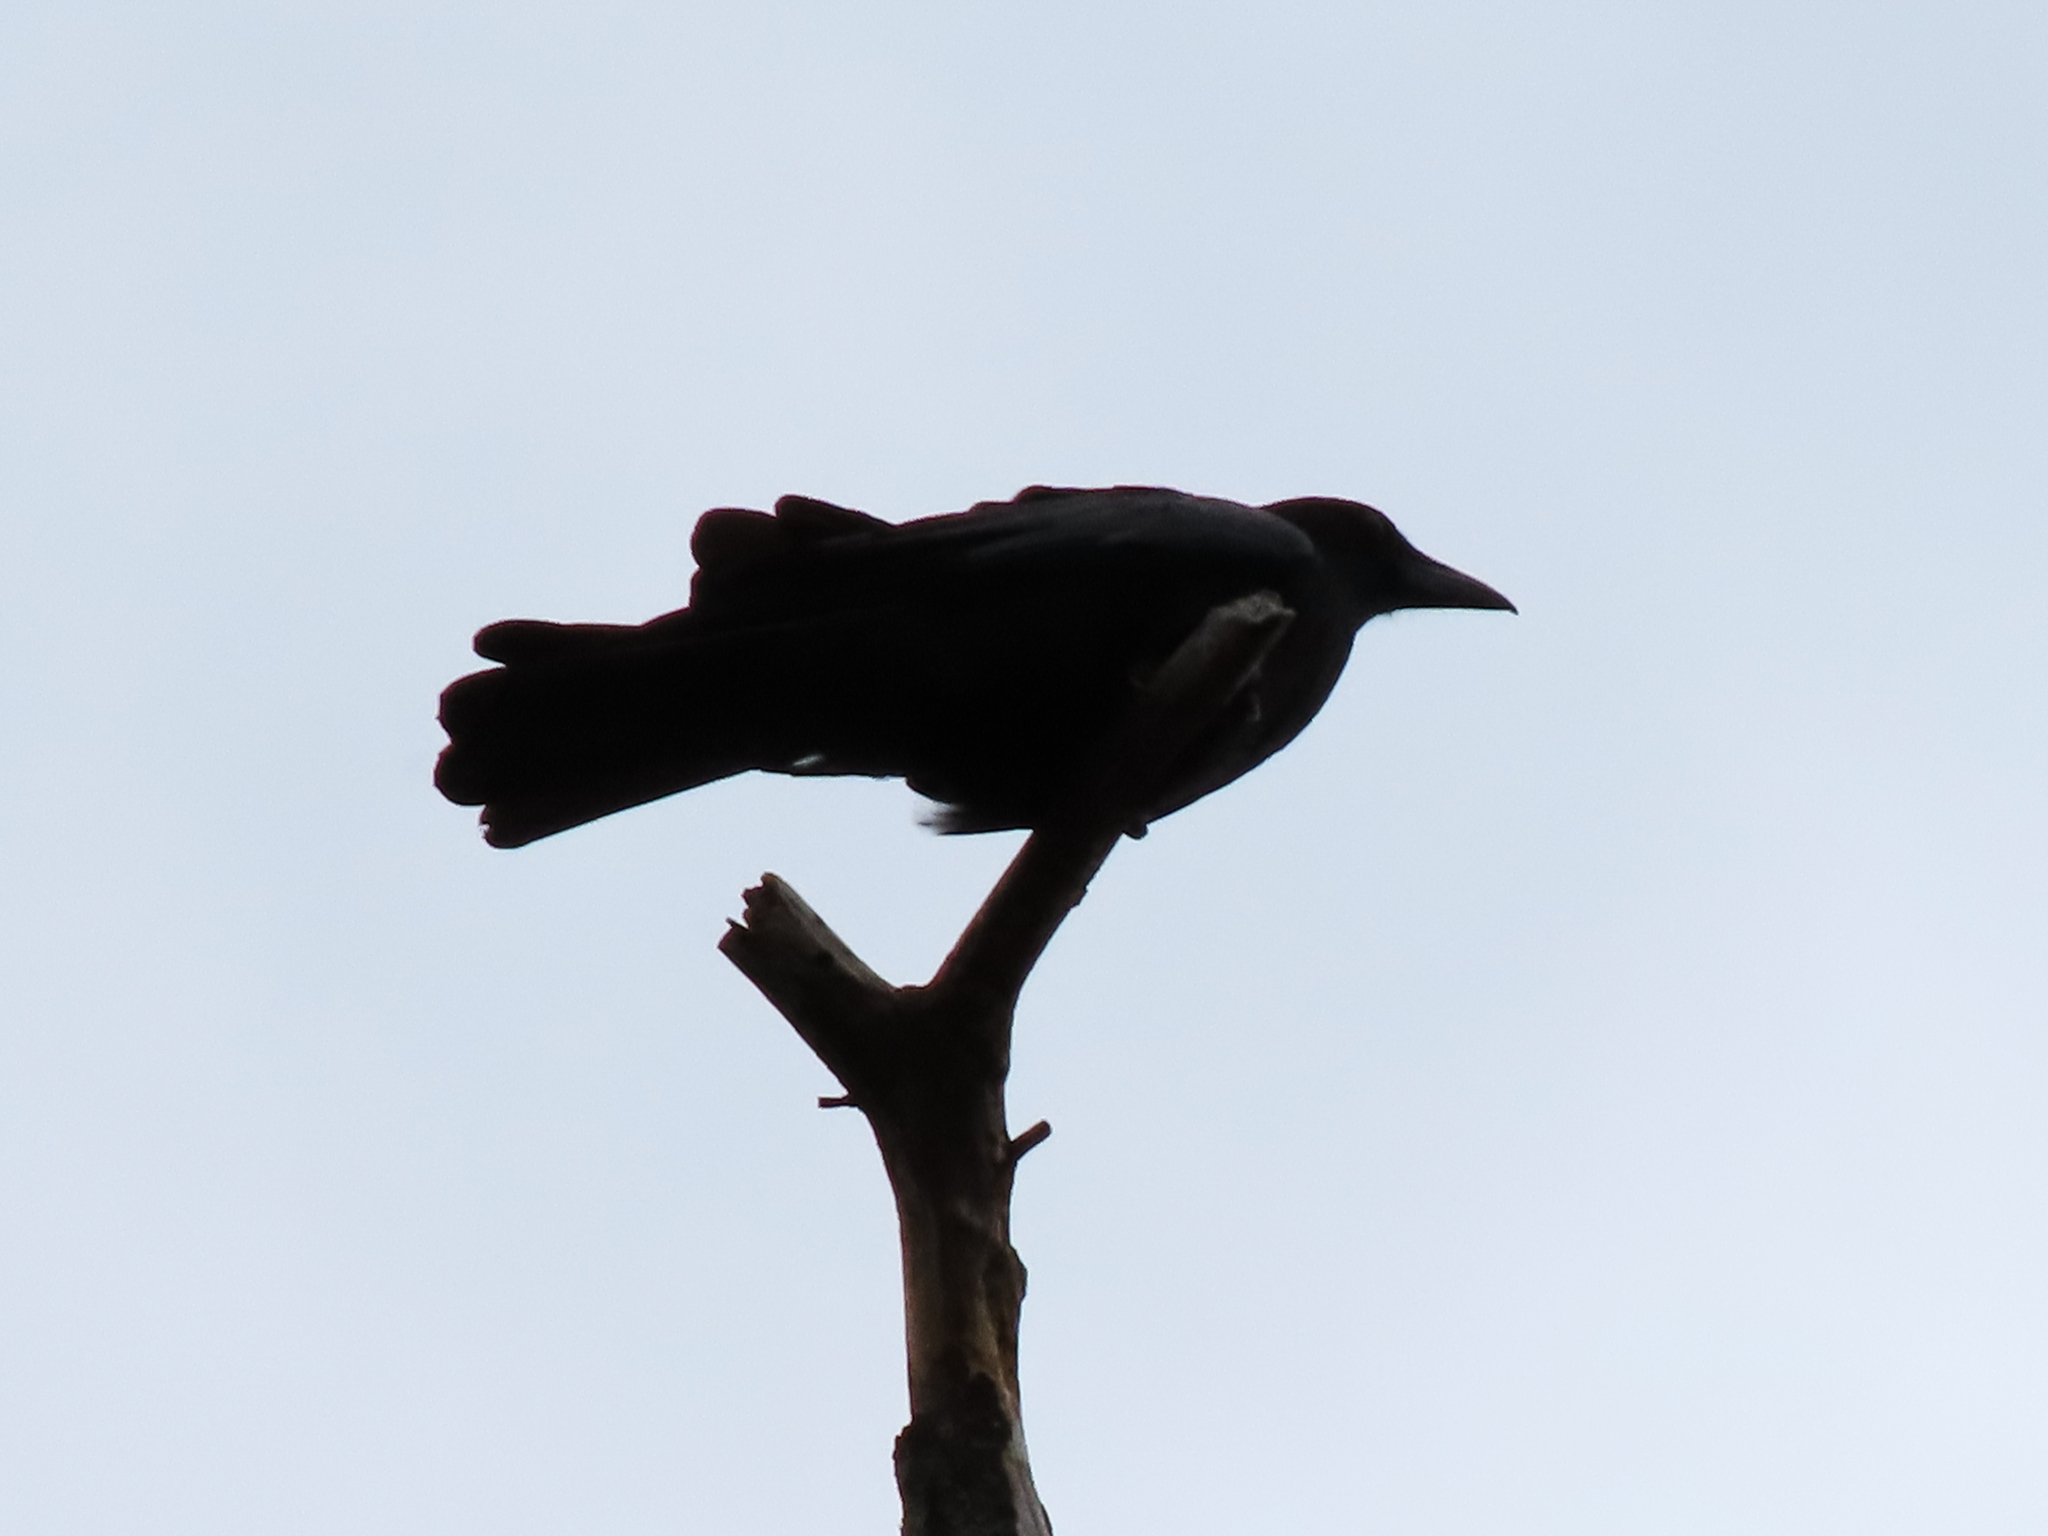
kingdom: Animalia
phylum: Chordata
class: Aves
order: Passeriformes
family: Corvidae
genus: Corvus
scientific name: Corvus brachyrhynchos
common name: American crow
